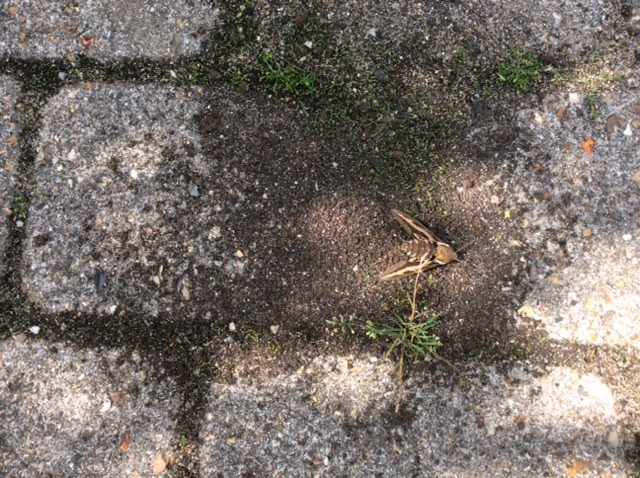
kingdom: Animalia
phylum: Arthropoda
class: Insecta
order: Lepidoptera
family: Sphingidae
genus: Hyles
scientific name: Hyles gallii
